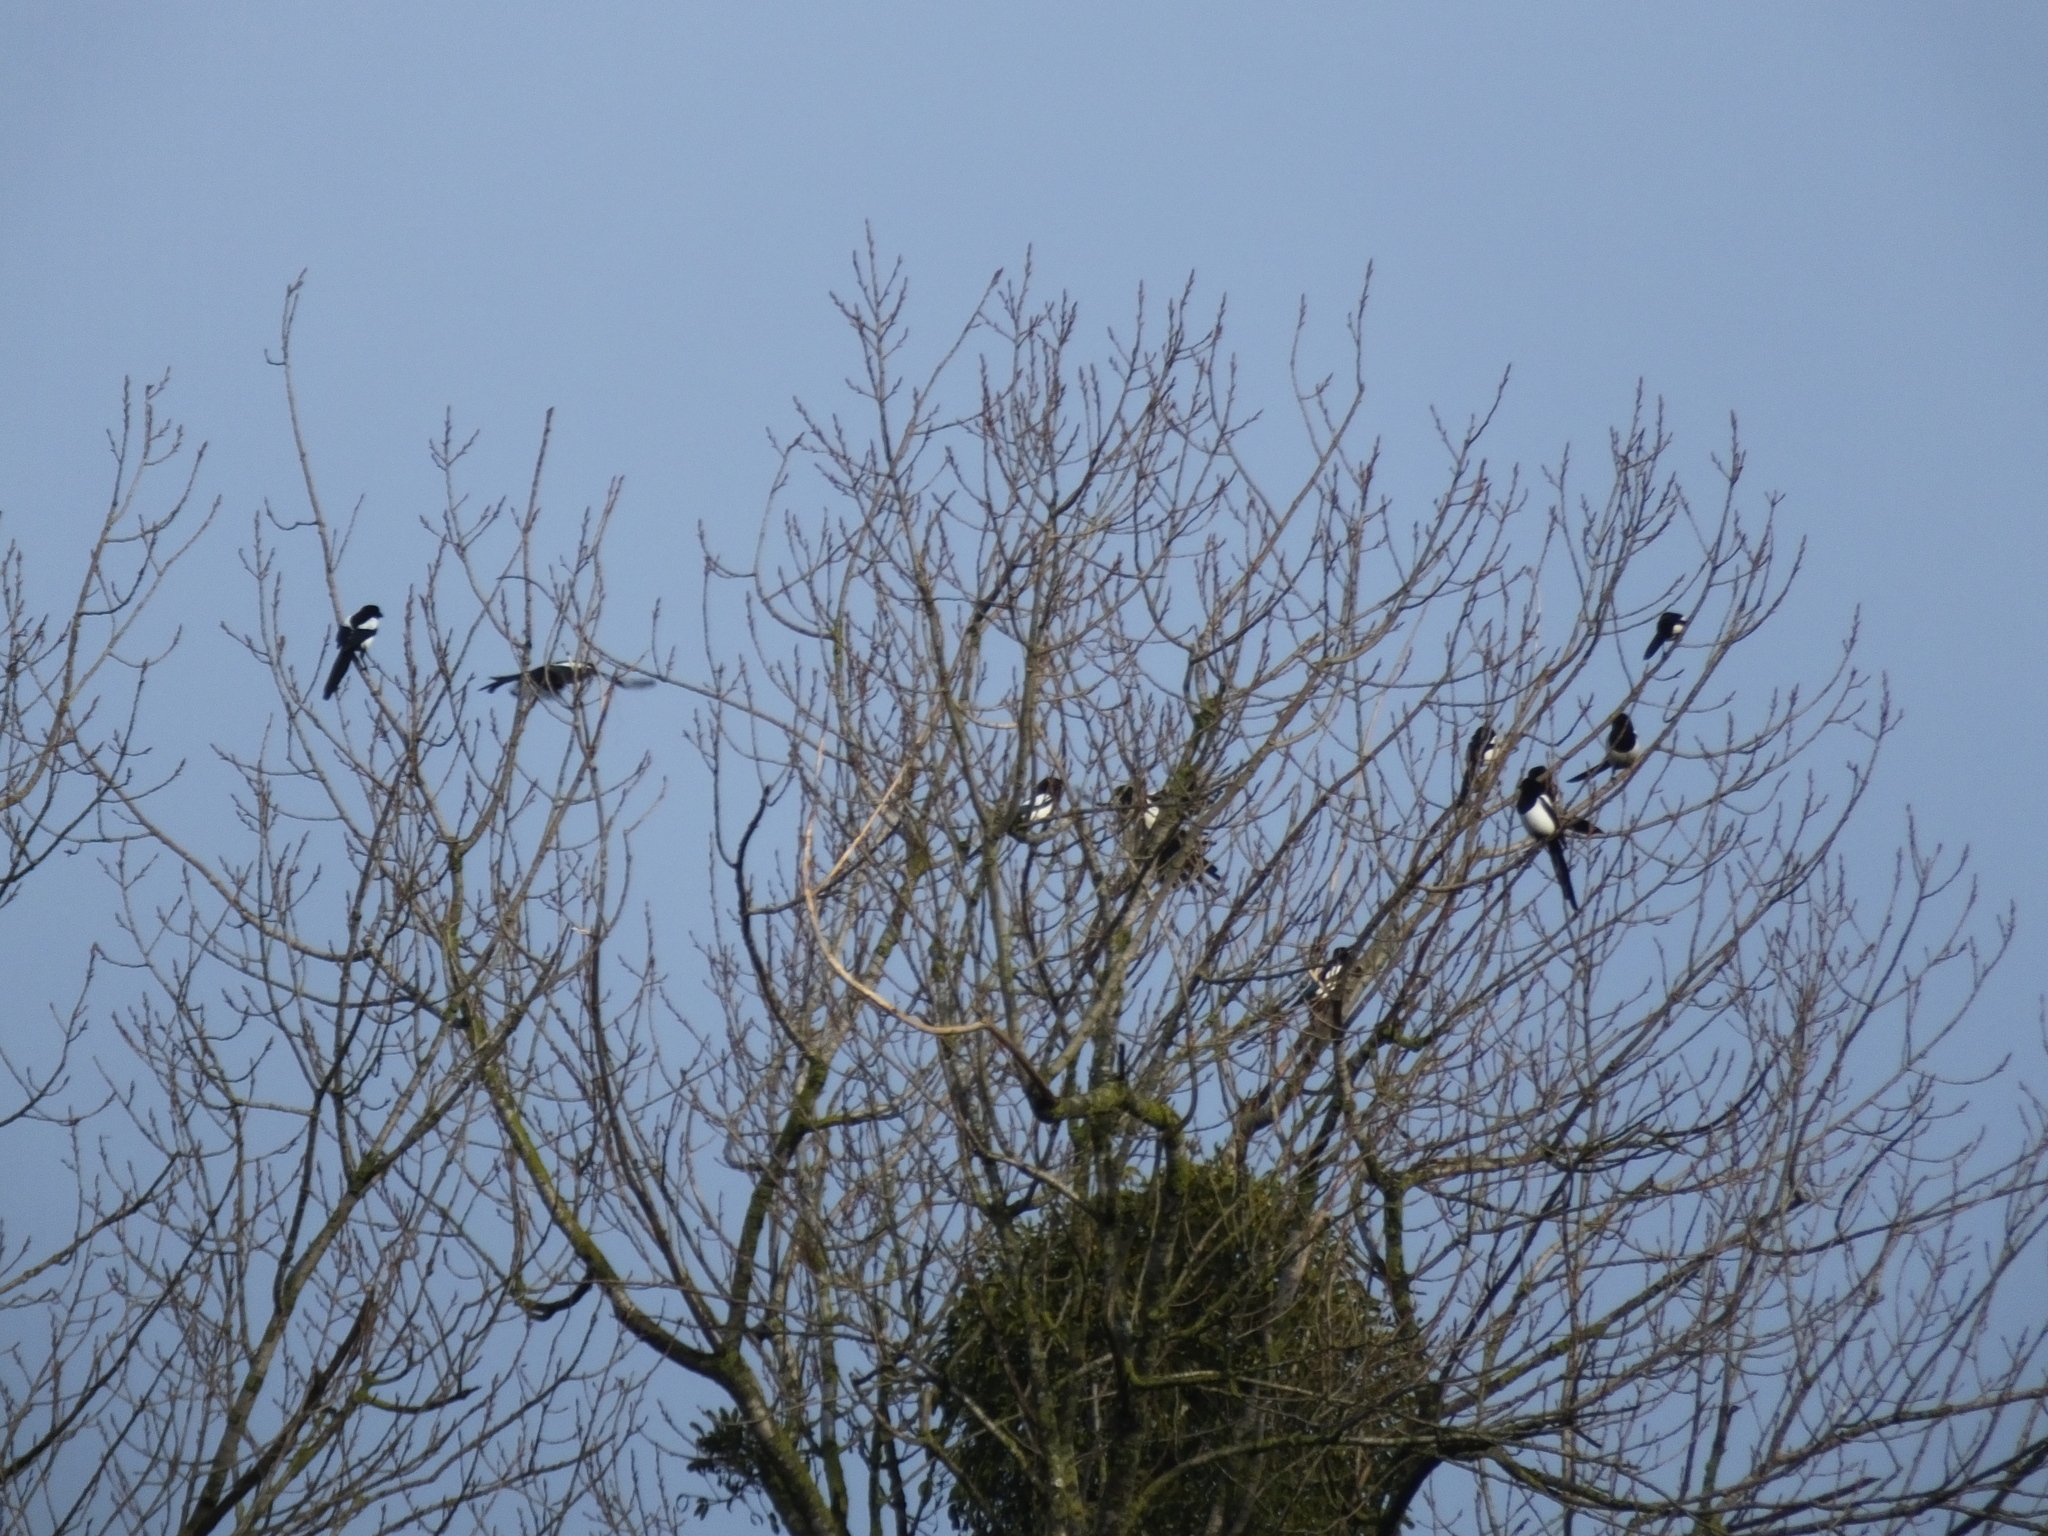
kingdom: Animalia
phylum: Chordata
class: Aves
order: Passeriformes
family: Corvidae
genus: Pica
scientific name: Pica pica
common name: Eurasian magpie
